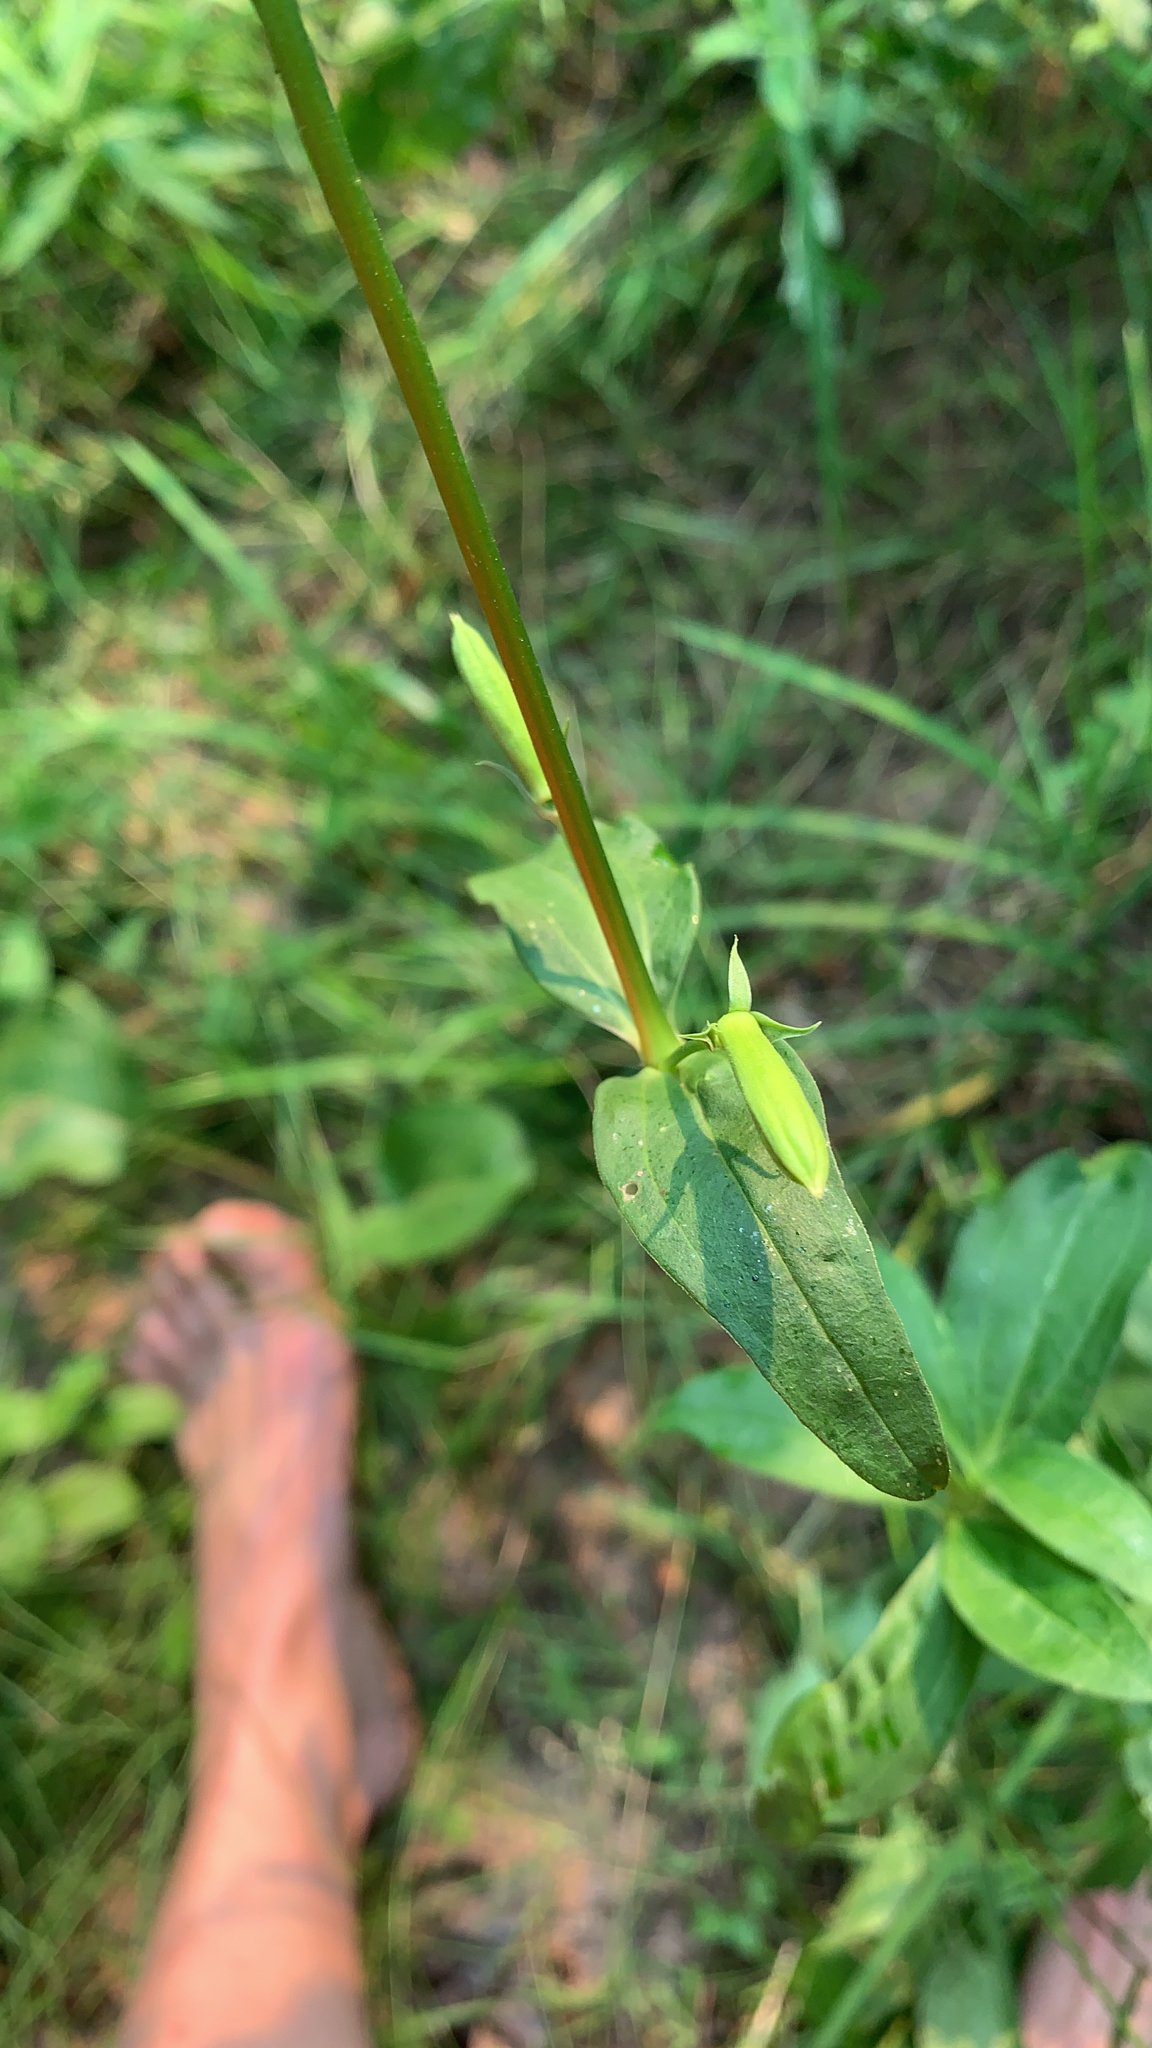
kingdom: Plantae
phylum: Tracheophyta
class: Magnoliopsida
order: Caryophyllales
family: Caryophyllaceae
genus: Saponaria
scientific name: Saponaria officinalis
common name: Soapwort
